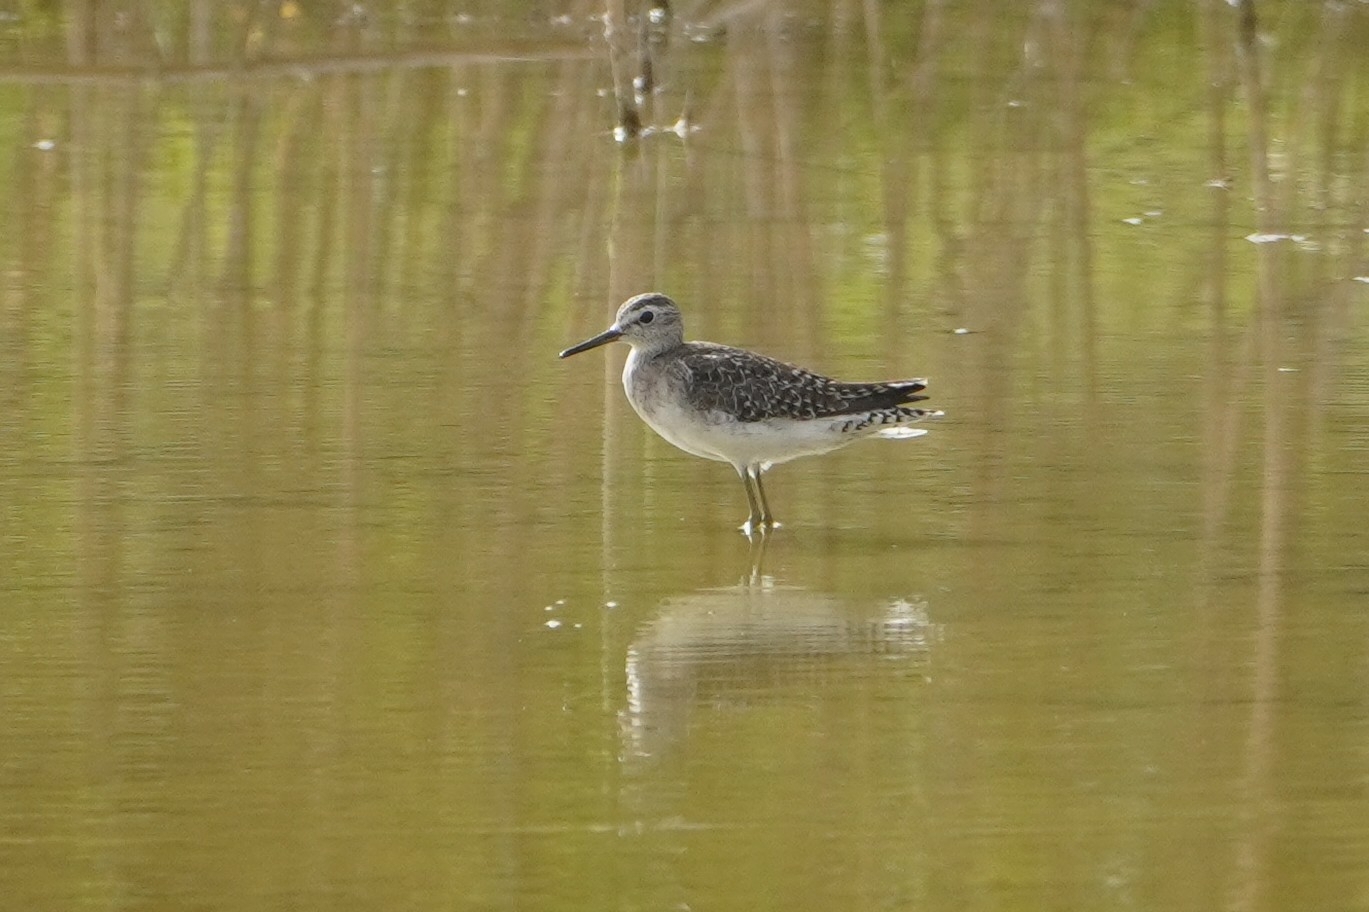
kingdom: Animalia
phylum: Chordata
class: Aves
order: Charadriiformes
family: Scolopacidae
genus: Tringa
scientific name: Tringa glareola
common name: Wood sandpiper
